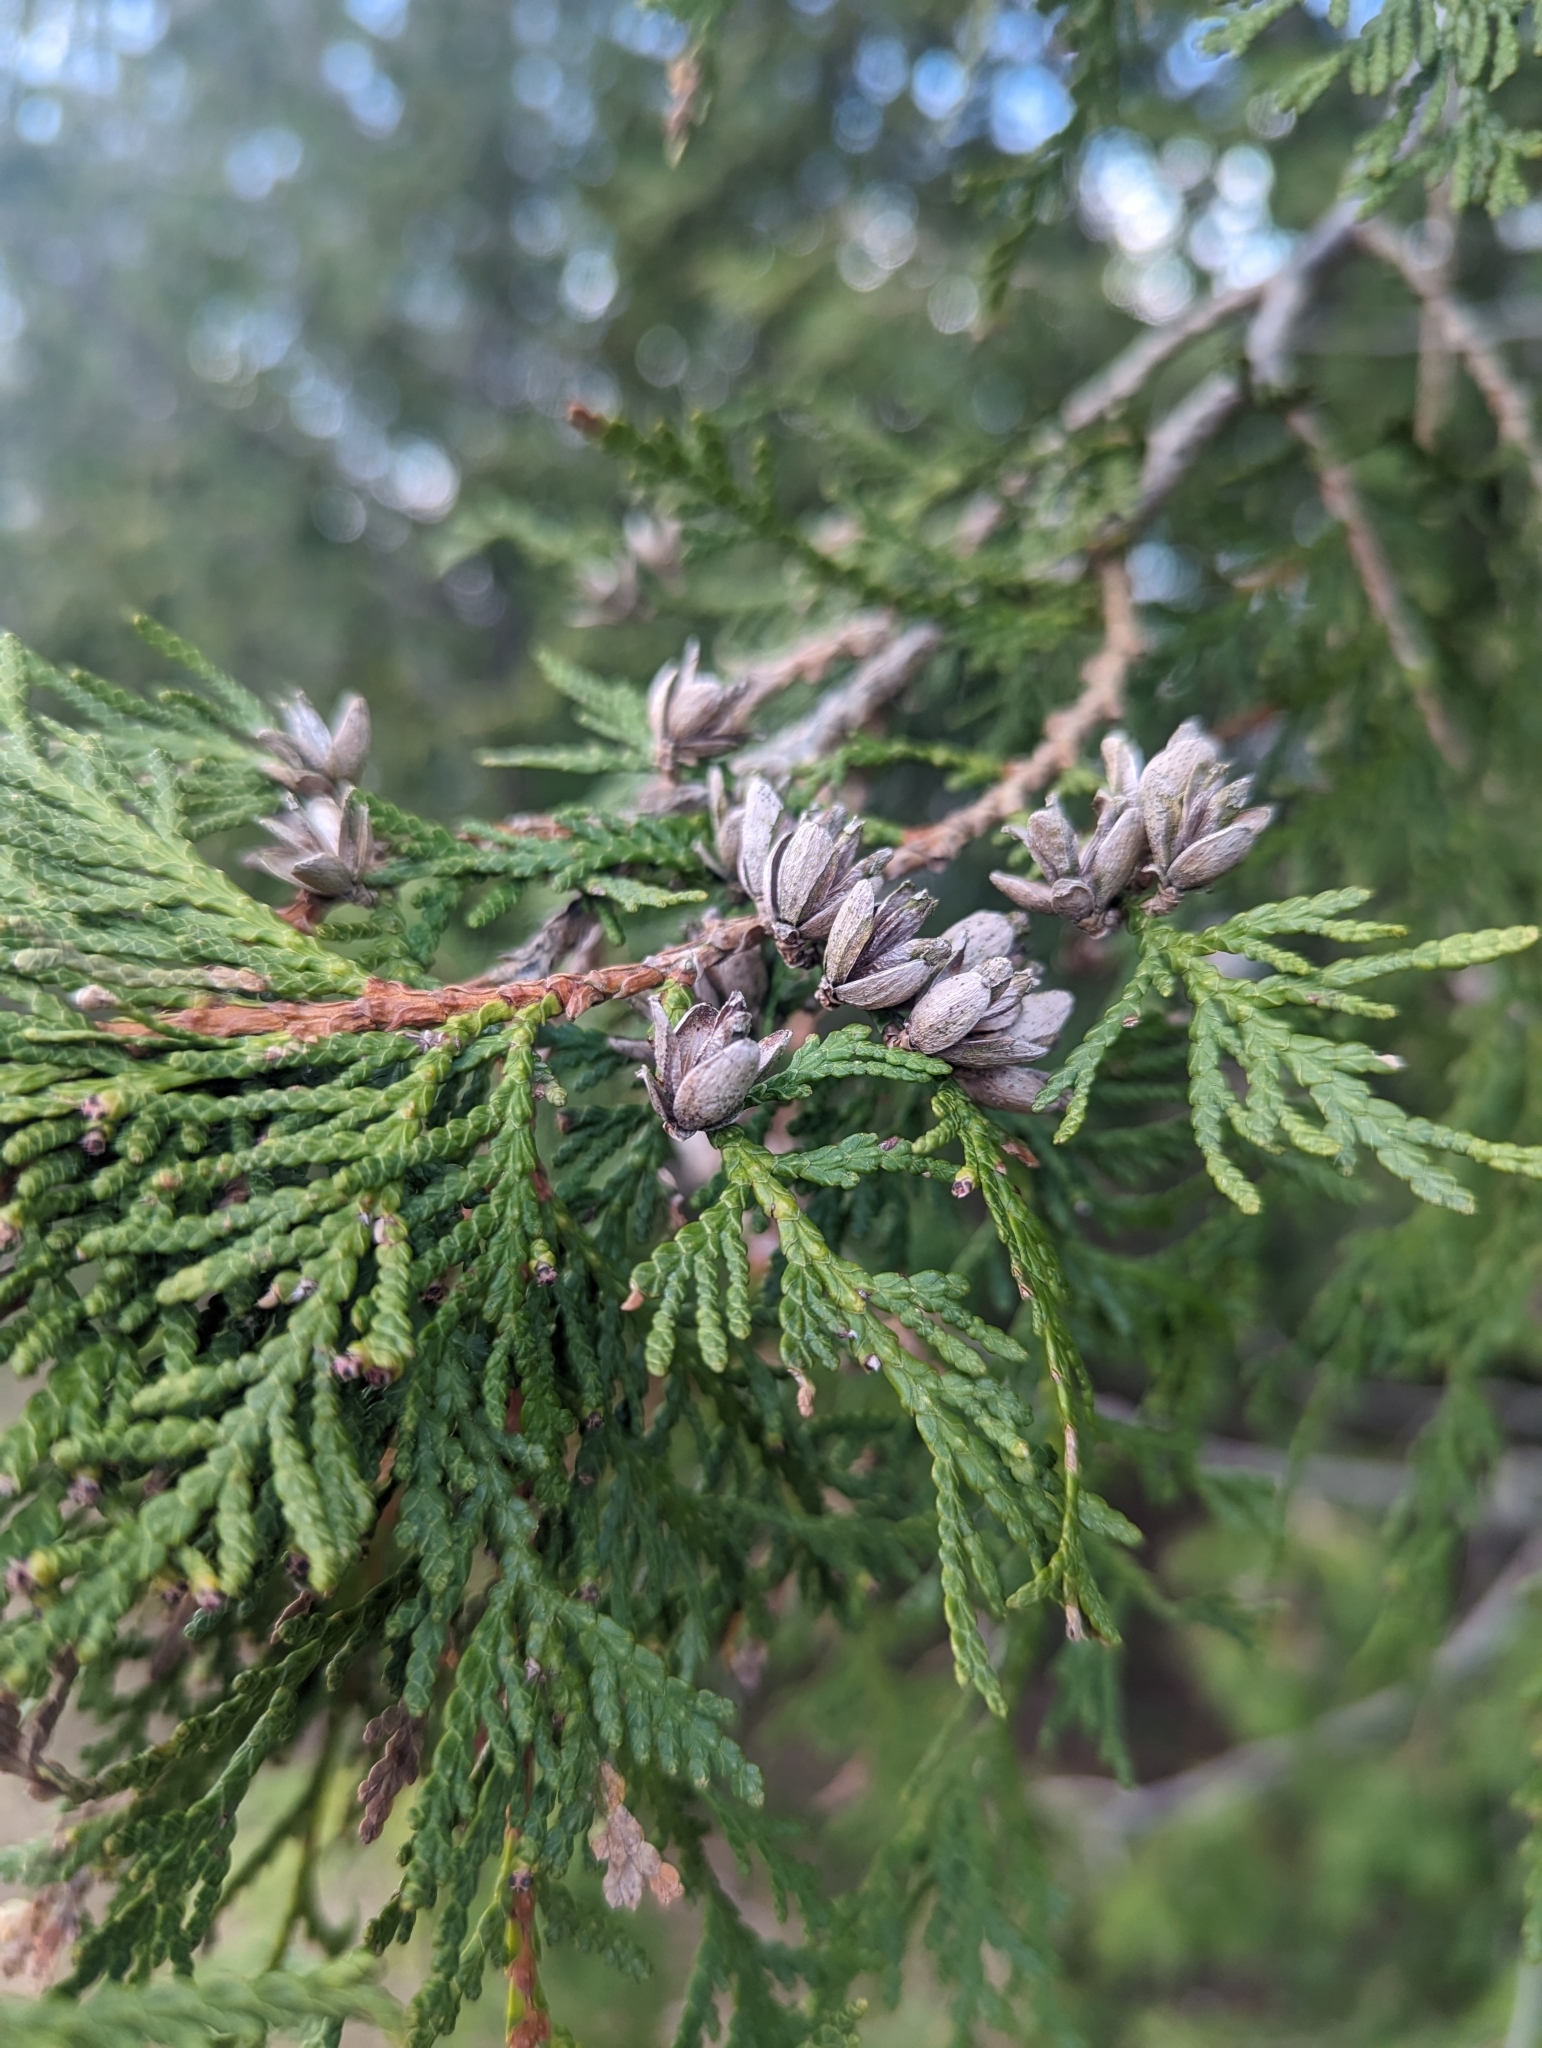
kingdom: Plantae
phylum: Tracheophyta
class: Pinopsida
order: Pinales
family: Cupressaceae
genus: Thuja
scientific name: Thuja occidentalis
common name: Northern white-cedar
